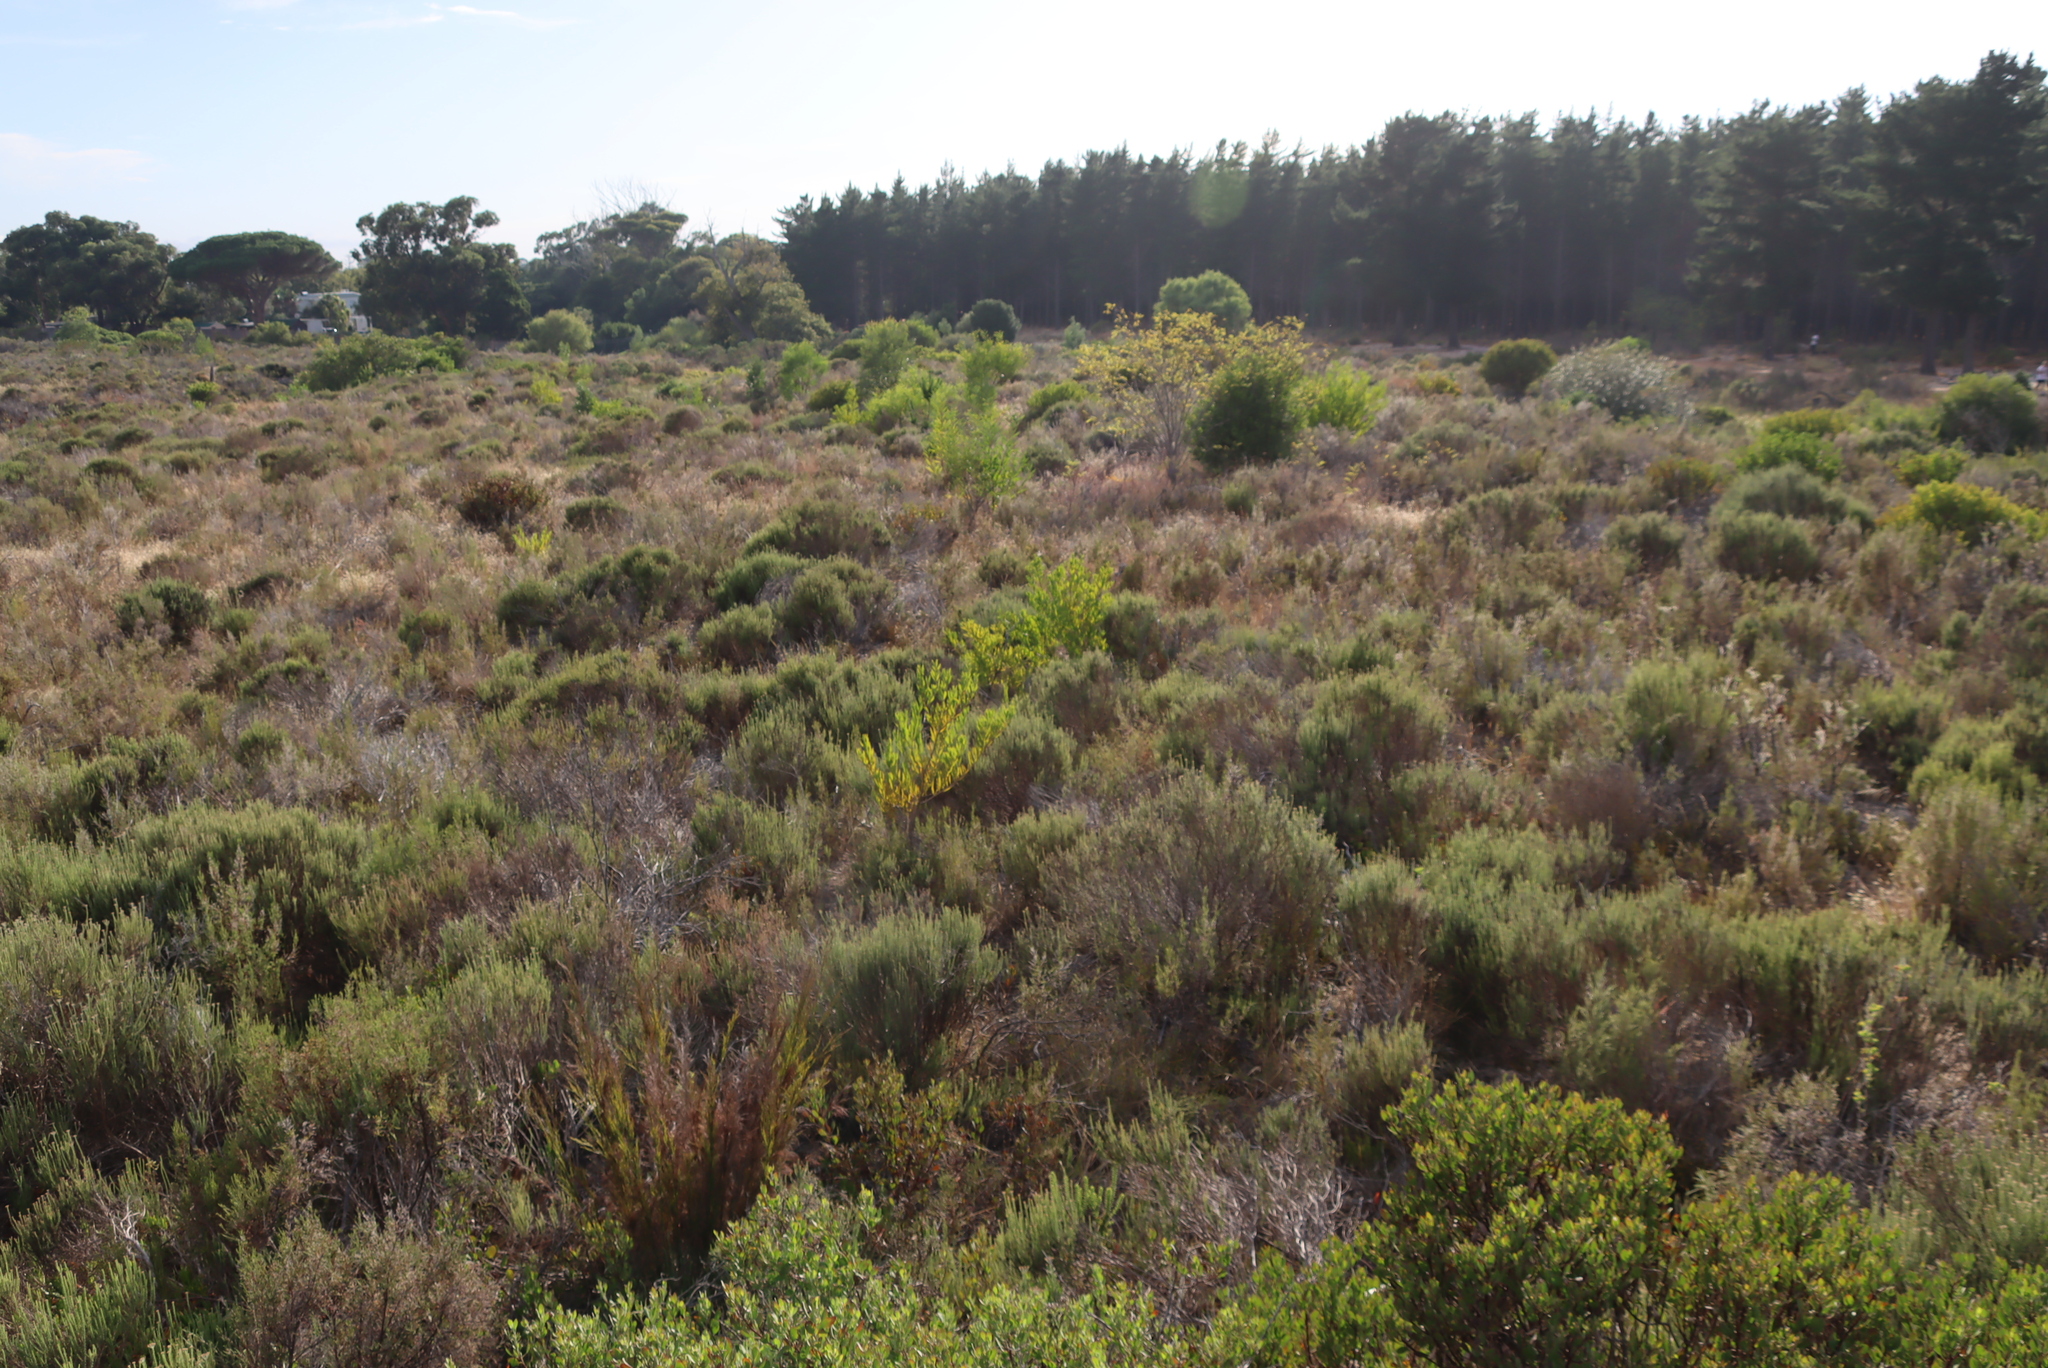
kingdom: Plantae
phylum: Tracheophyta
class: Magnoliopsida
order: Fabales
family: Fabaceae
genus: Acacia
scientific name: Acacia longifolia
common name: Sydney golden wattle
